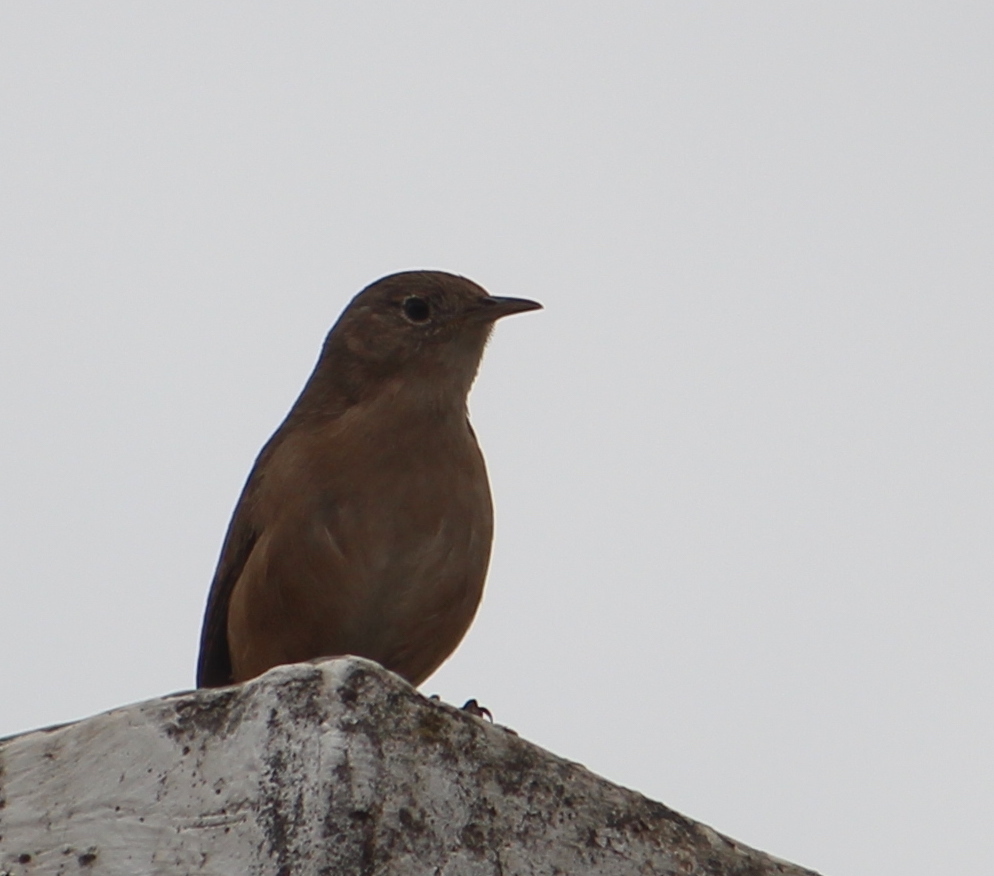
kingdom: Animalia
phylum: Chordata
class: Aves
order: Passeriformes
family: Troglodytidae
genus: Troglodytes
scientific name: Troglodytes aedon
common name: House wren
